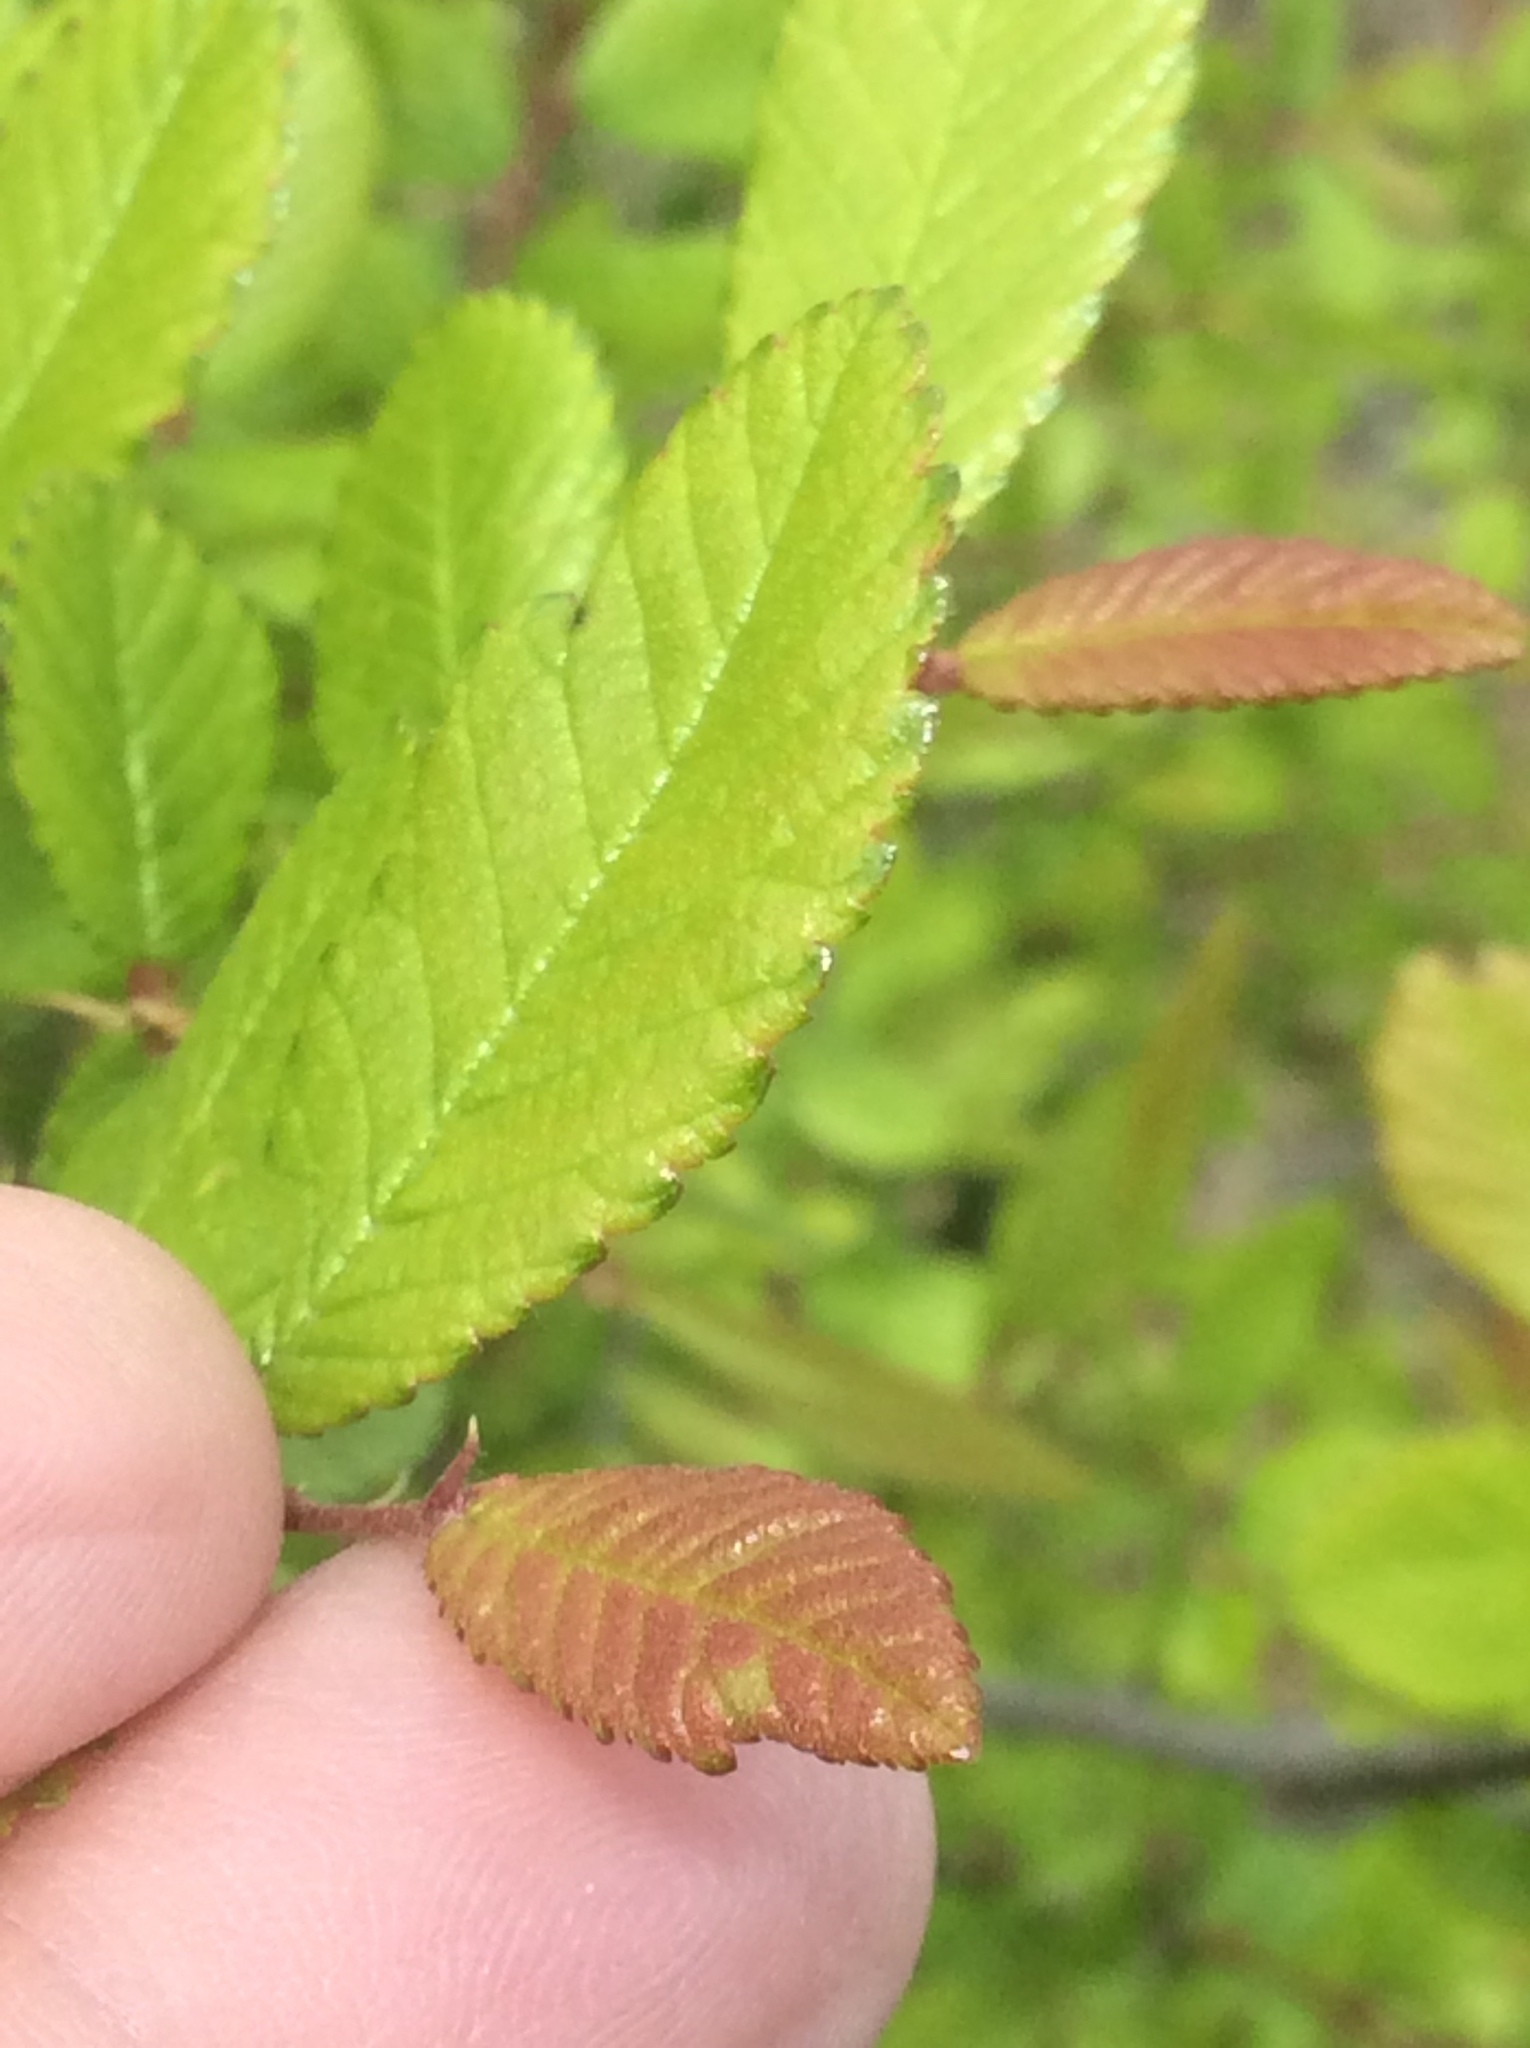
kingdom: Plantae
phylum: Tracheophyta
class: Magnoliopsida
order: Rosales
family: Ulmaceae
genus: Ulmus
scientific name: Ulmus crassifolia
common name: Basket elm
